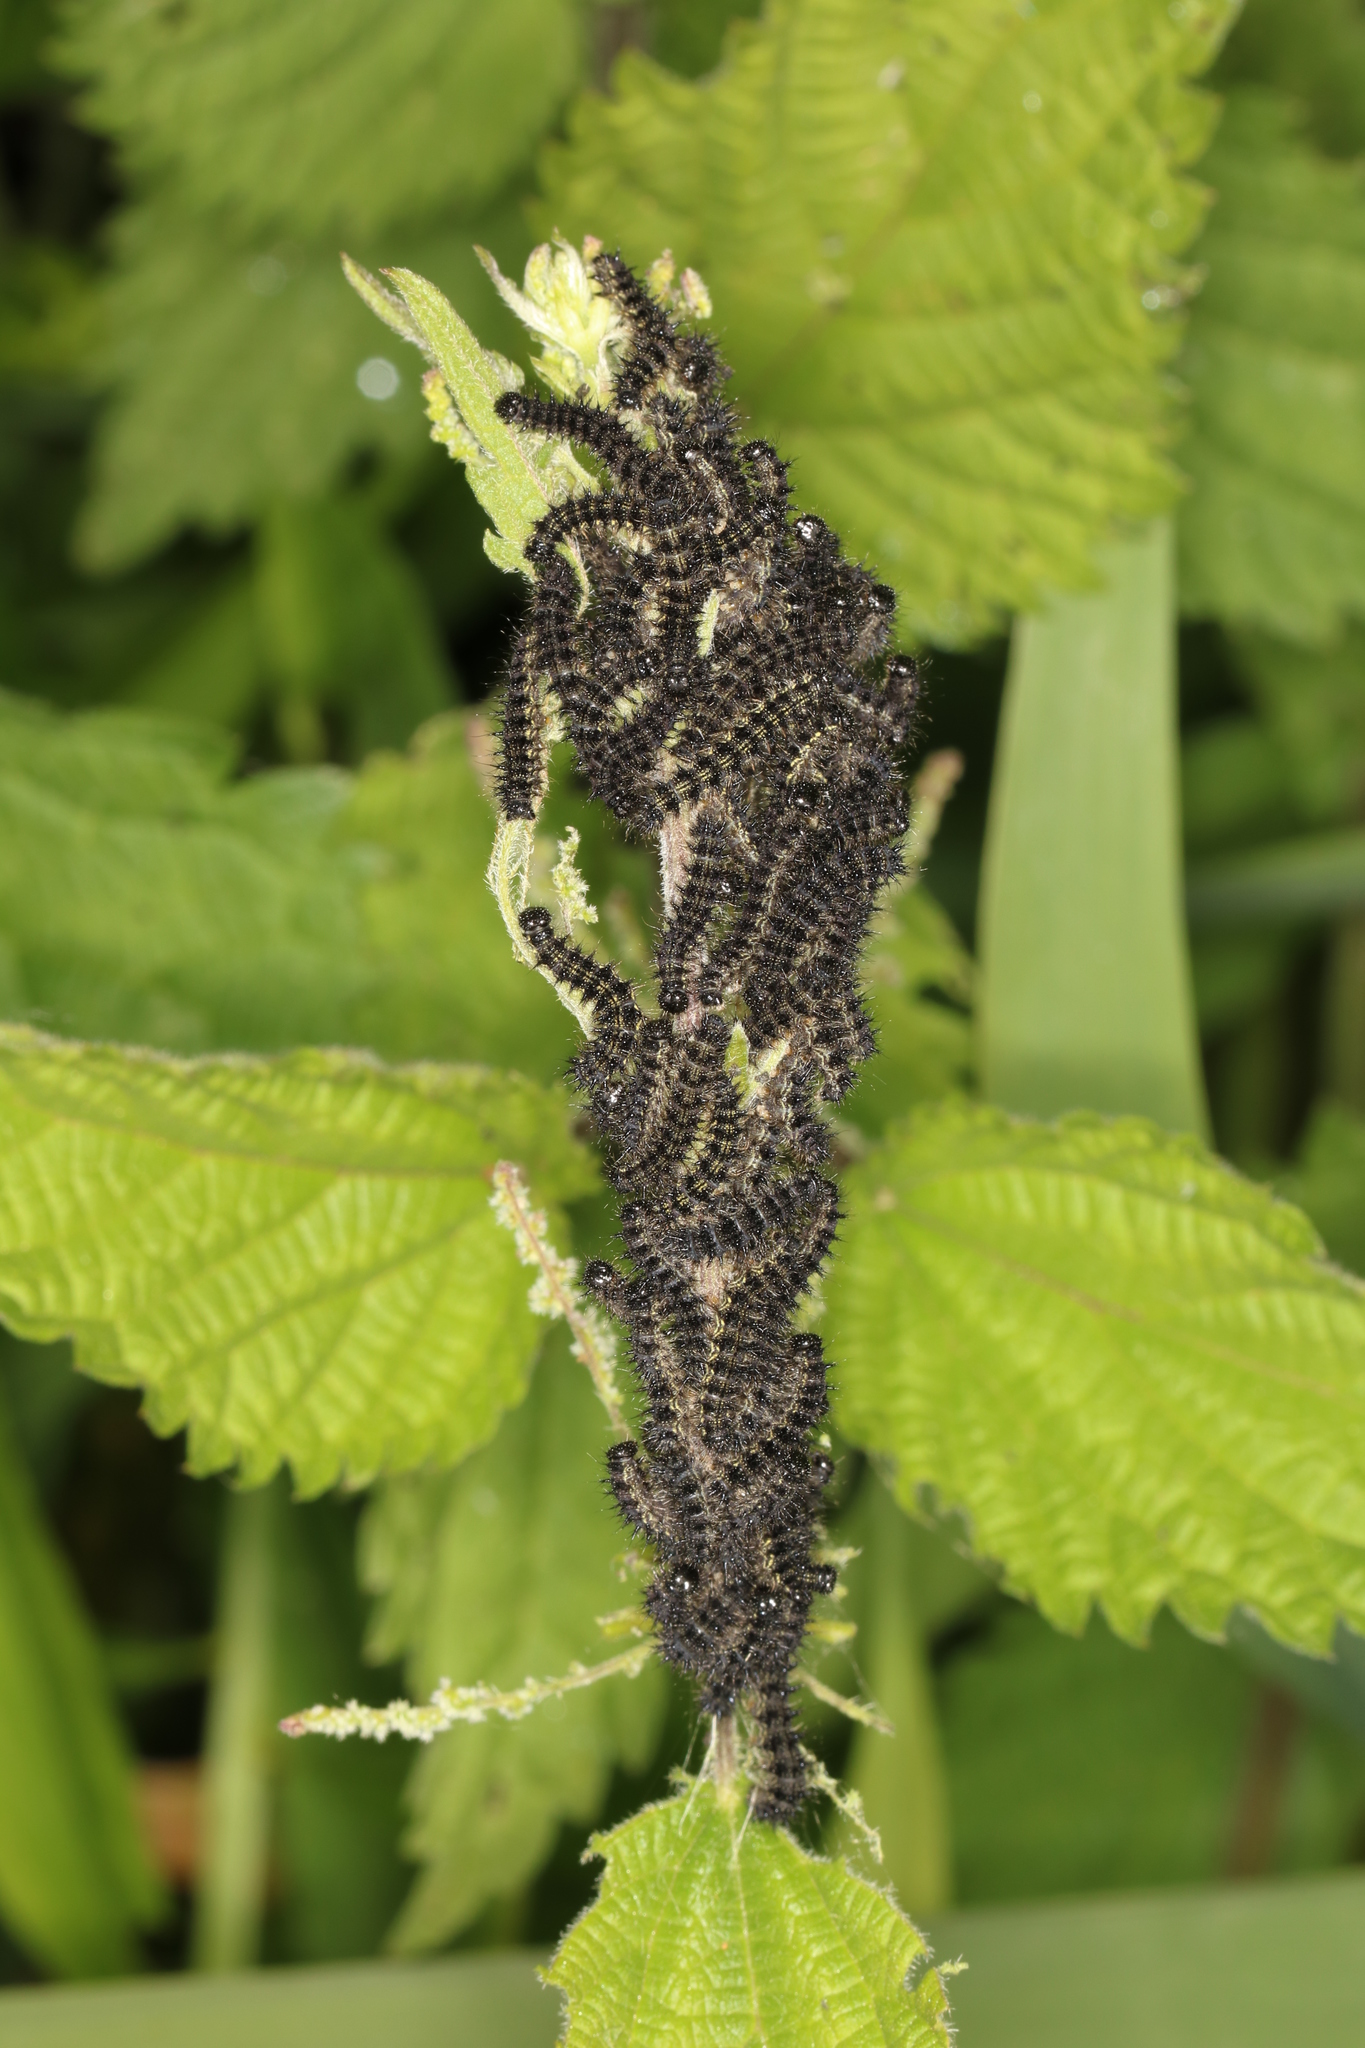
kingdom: Animalia
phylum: Arthropoda
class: Insecta
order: Lepidoptera
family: Nymphalidae
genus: Aglais
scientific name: Aglais urticae
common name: Small tortoiseshell
